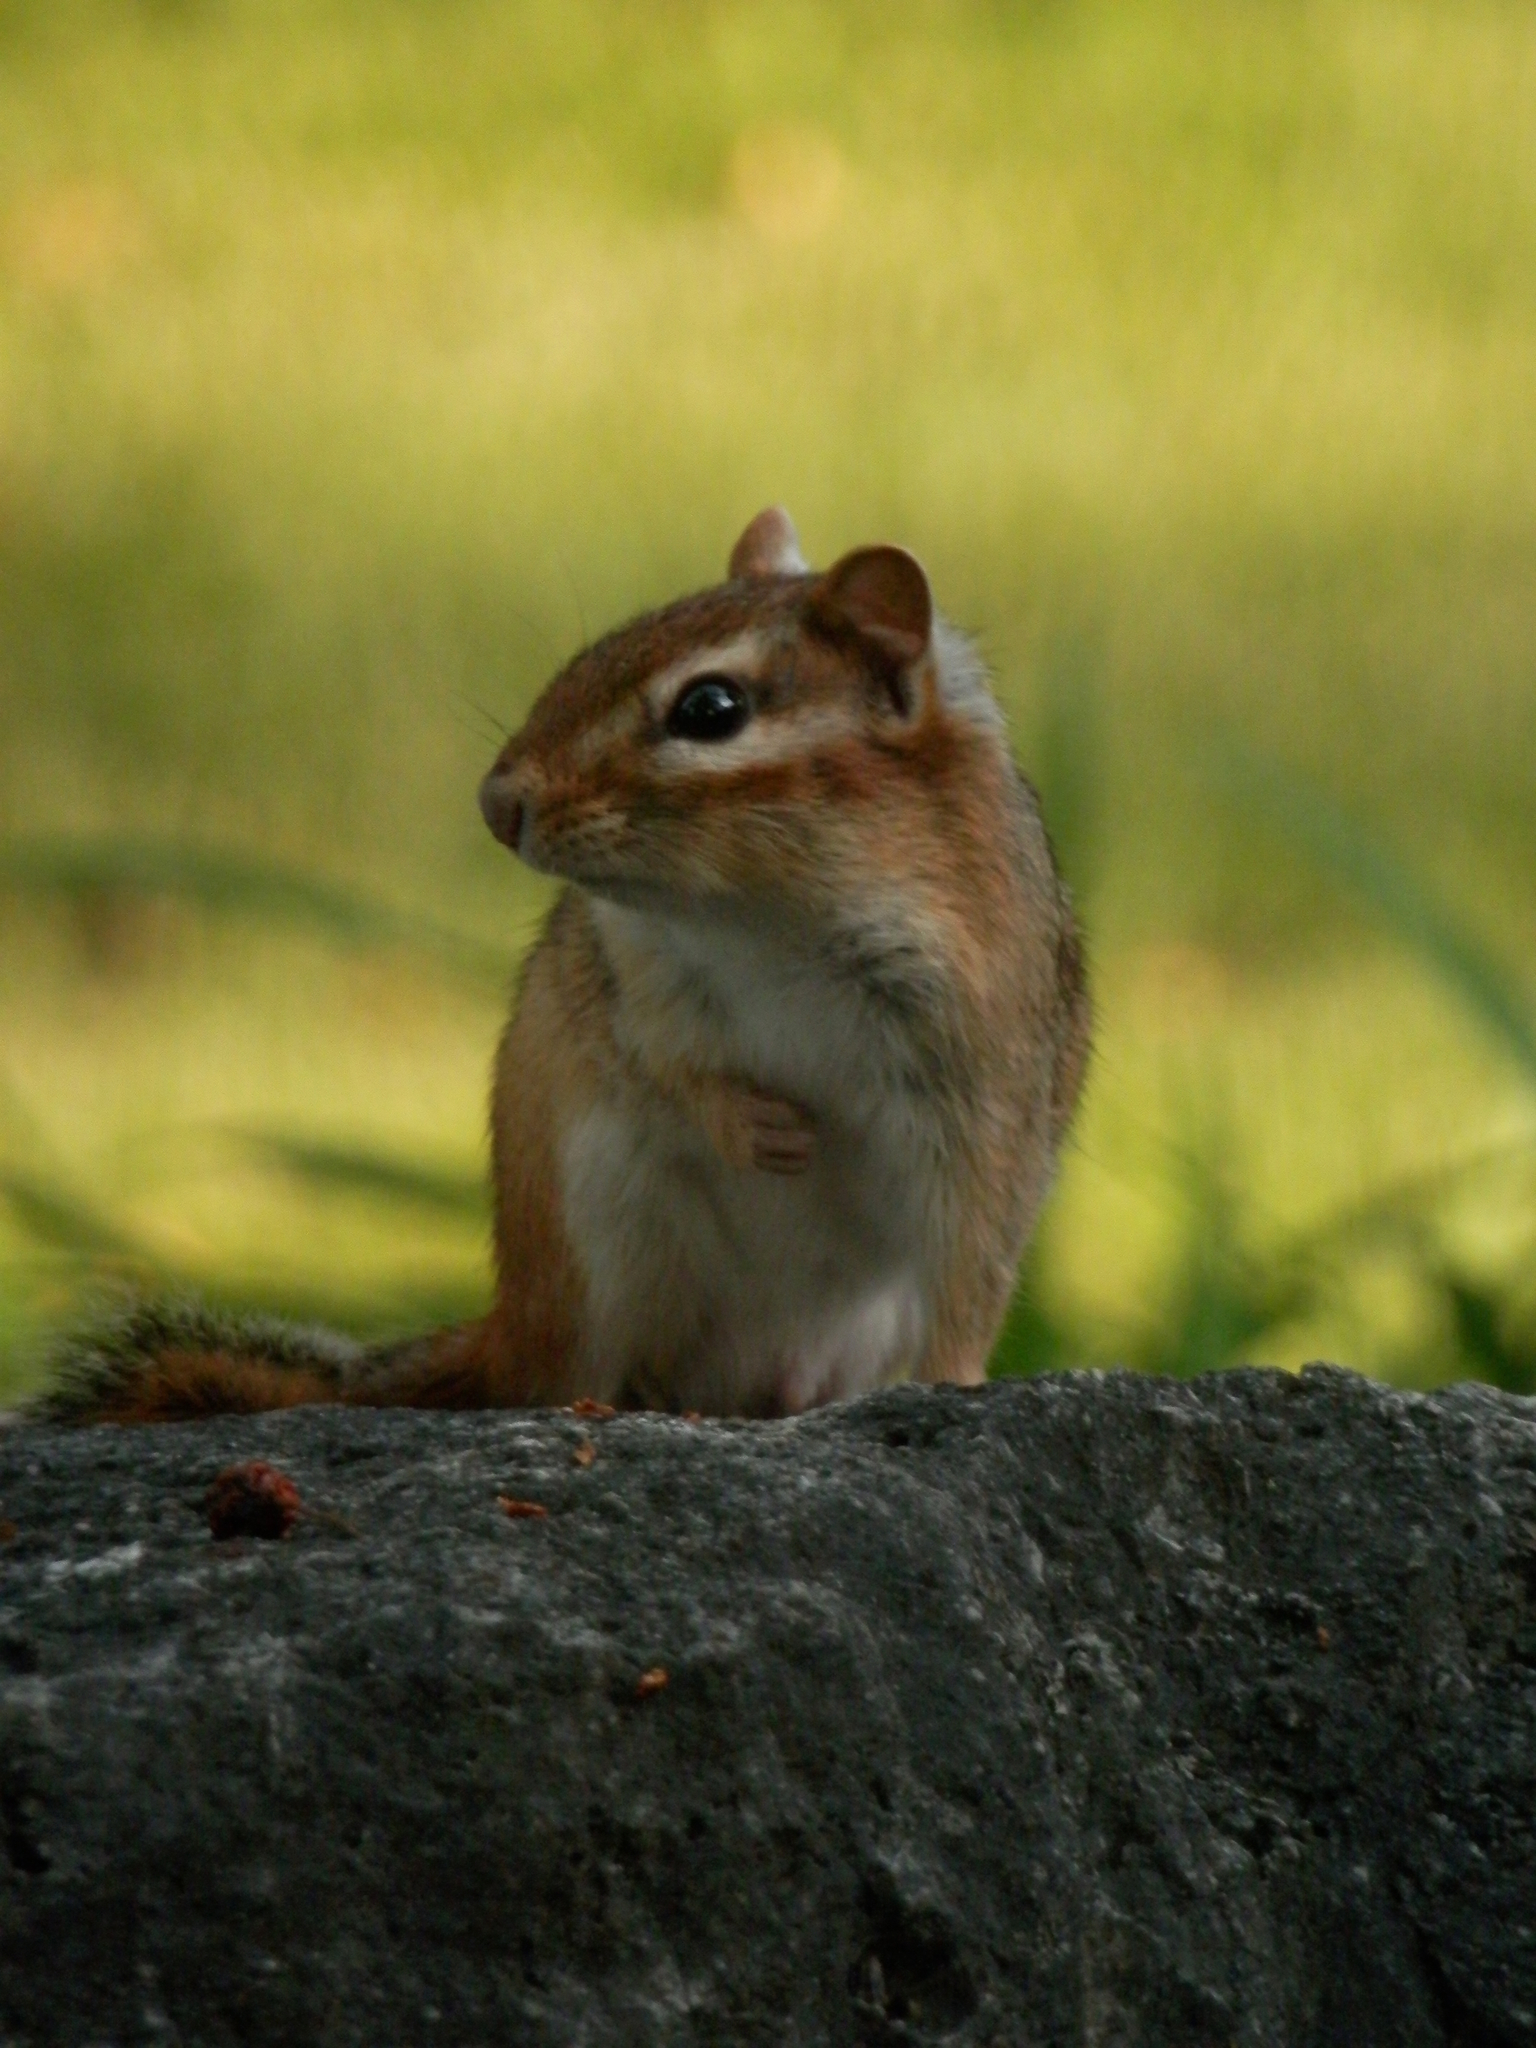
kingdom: Animalia
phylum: Chordata
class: Mammalia
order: Rodentia
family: Sciuridae
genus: Tamias
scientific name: Tamias striatus
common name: Eastern chipmunk
